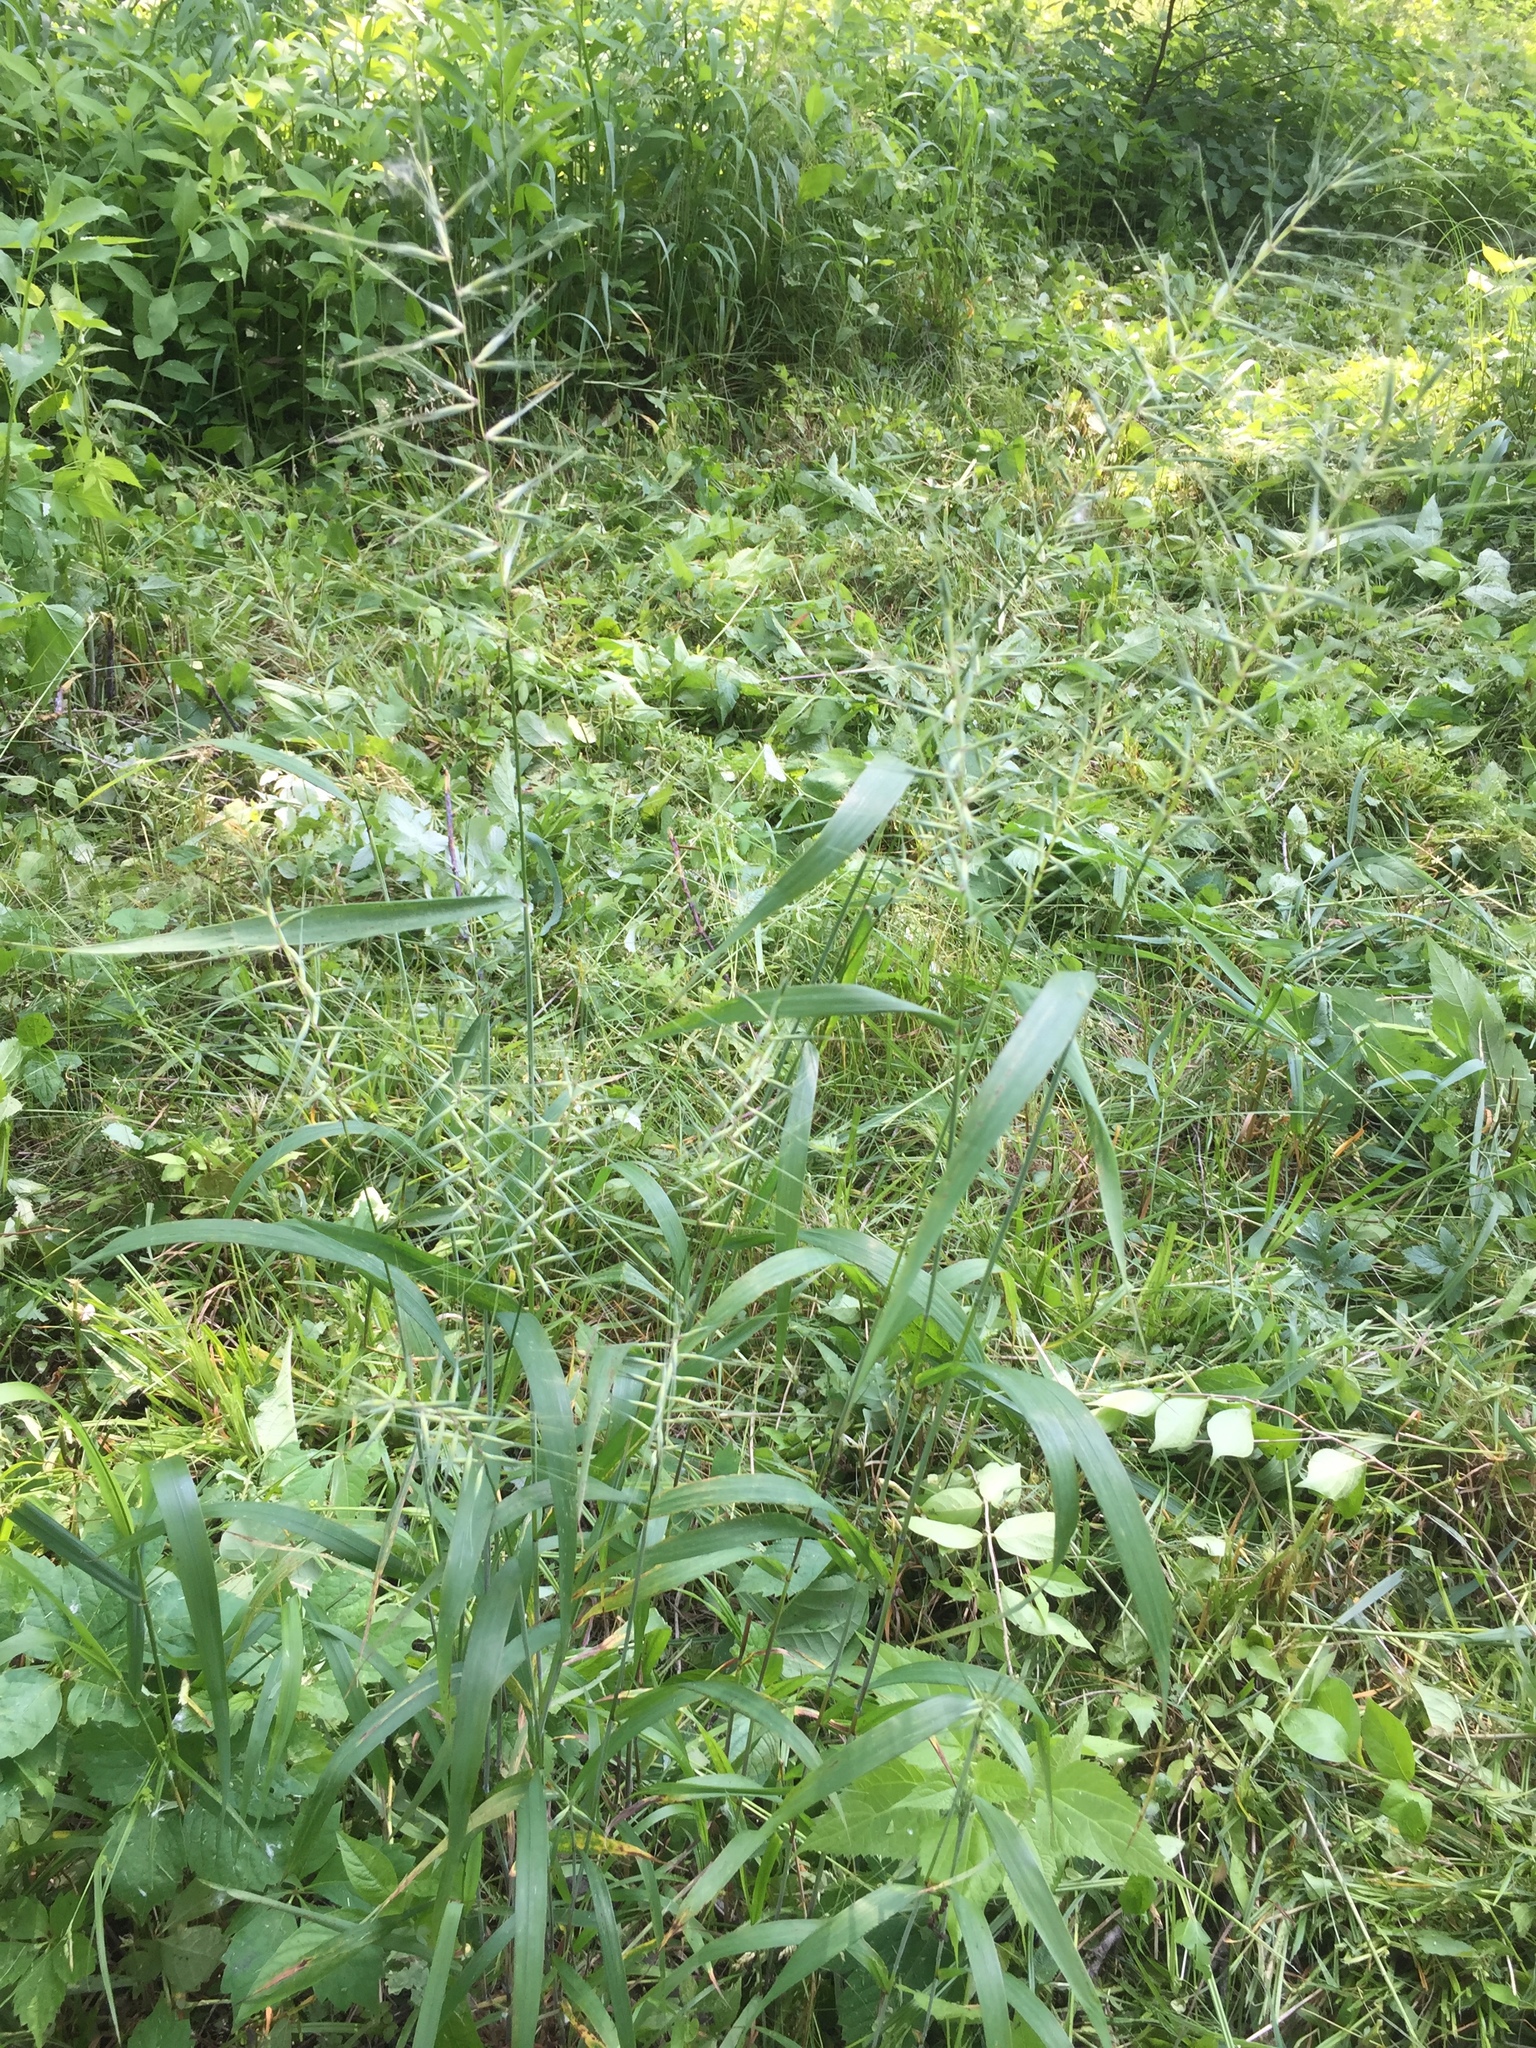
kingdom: Plantae
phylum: Tracheophyta
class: Liliopsida
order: Poales
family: Poaceae
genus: Elymus
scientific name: Elymus hystrix
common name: Bottlebrush grass
